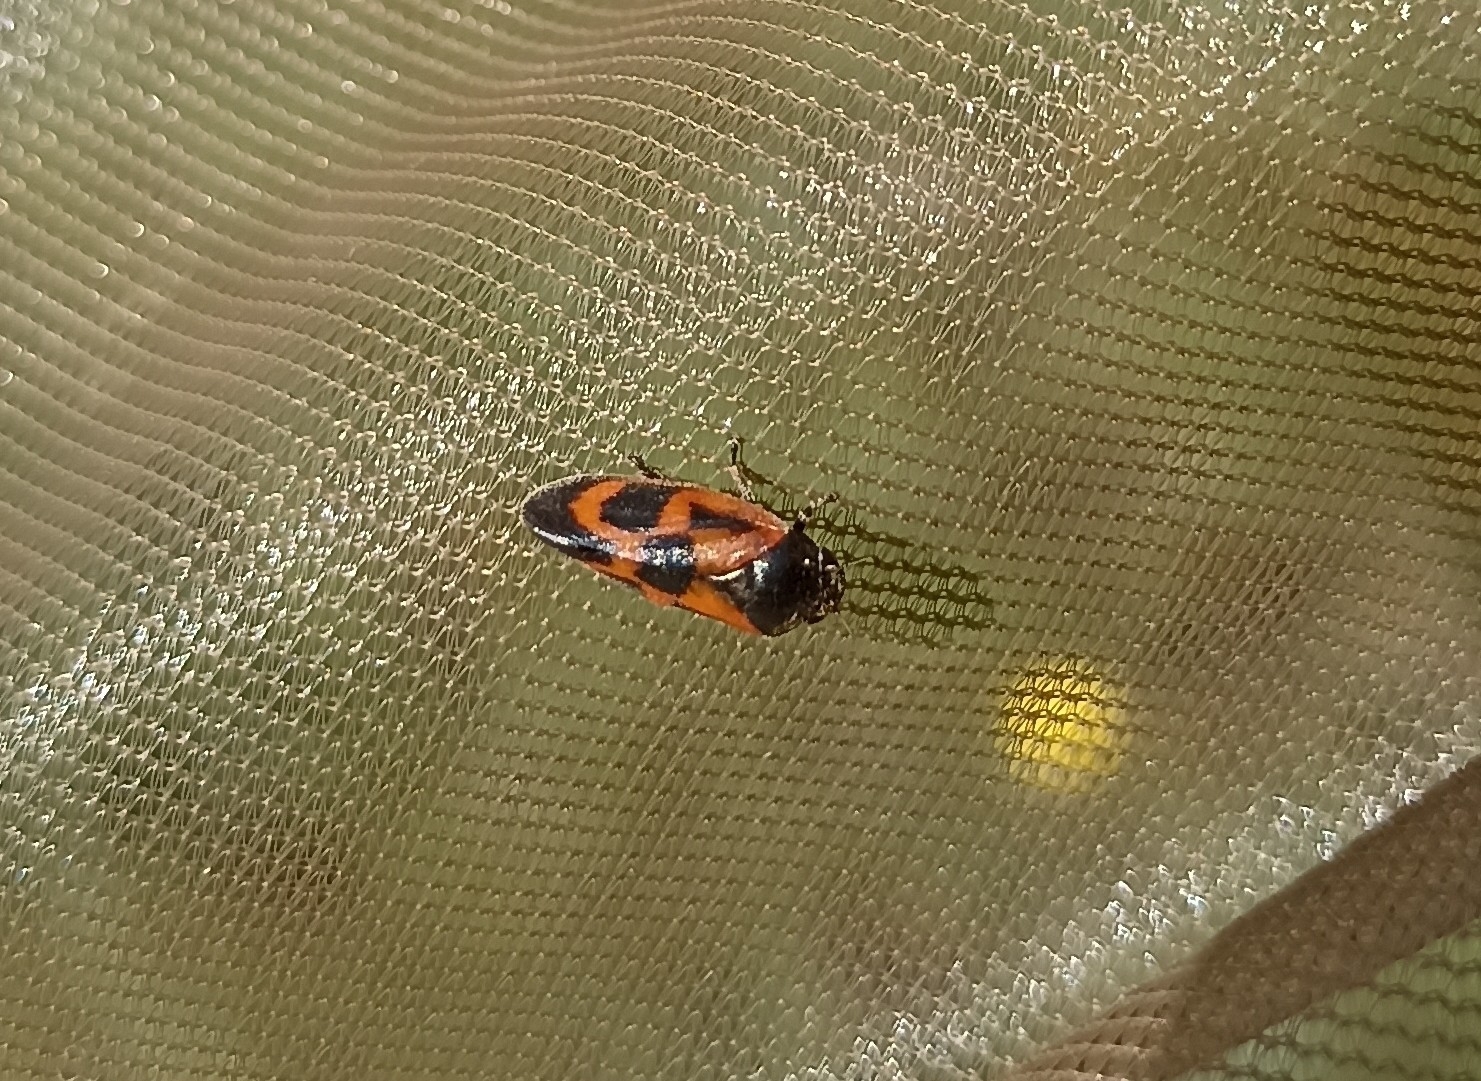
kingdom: Animalia
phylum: Arthropoda
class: Insecta
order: Hemiptera
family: Cercopidae
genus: Haematoloma
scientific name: Haematoloma dorsata
